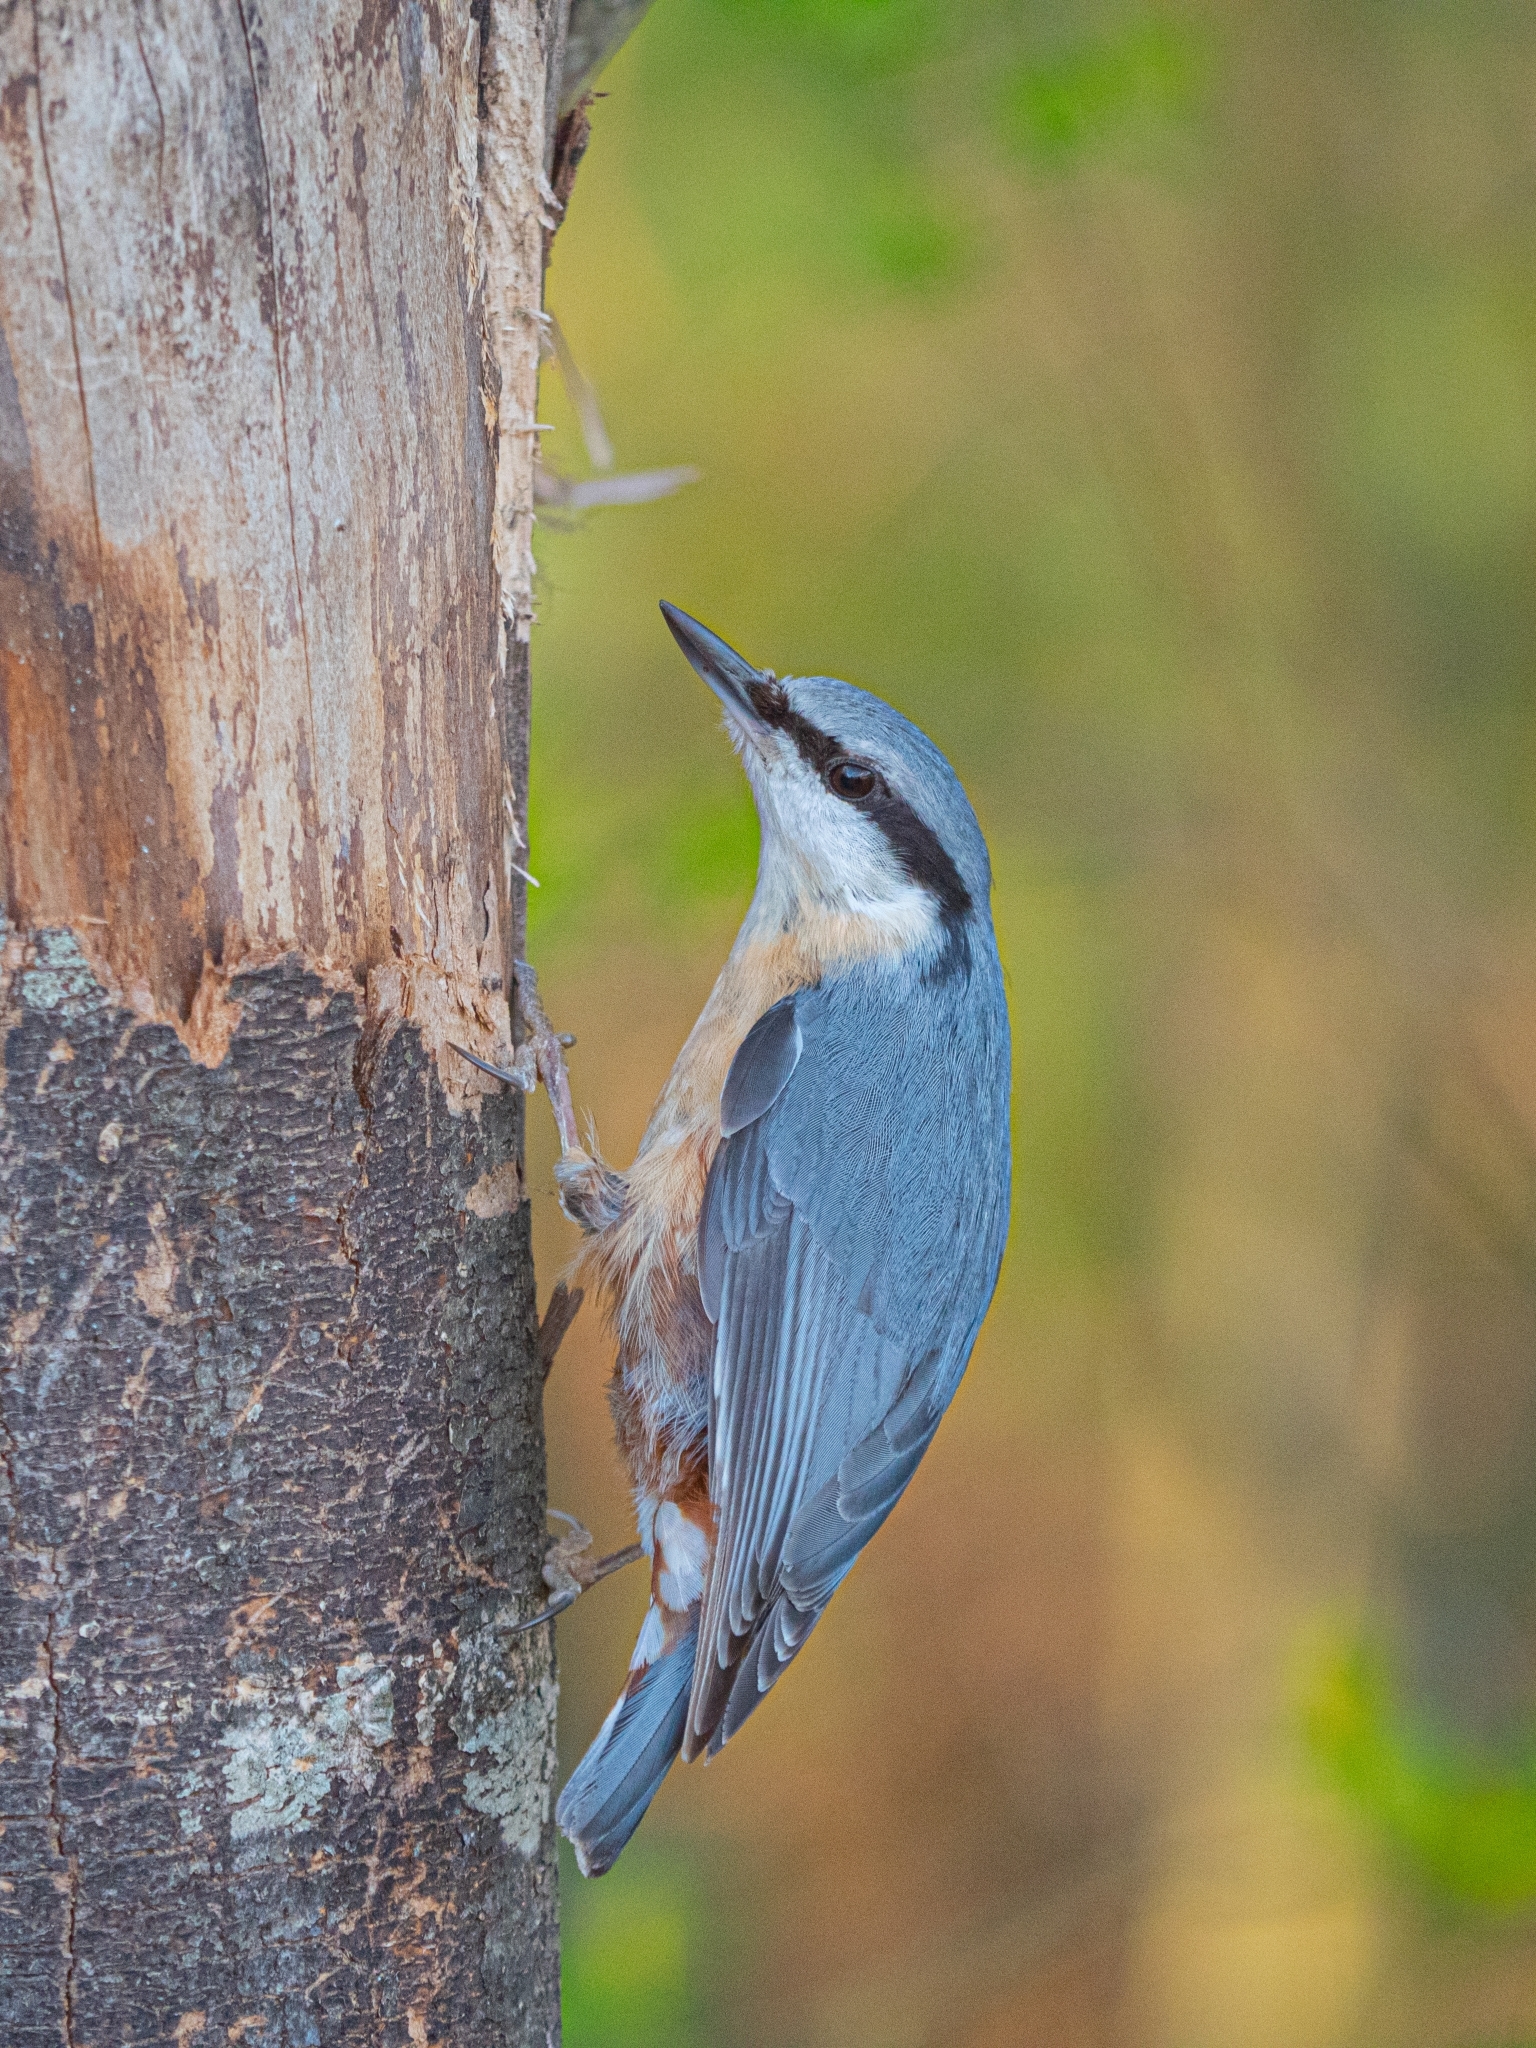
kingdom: Animalia
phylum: Chordata
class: Aves
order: Passeriformes
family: Sittidae
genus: Sitta
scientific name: Sitta europaea
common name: Eurasian nuthatch
